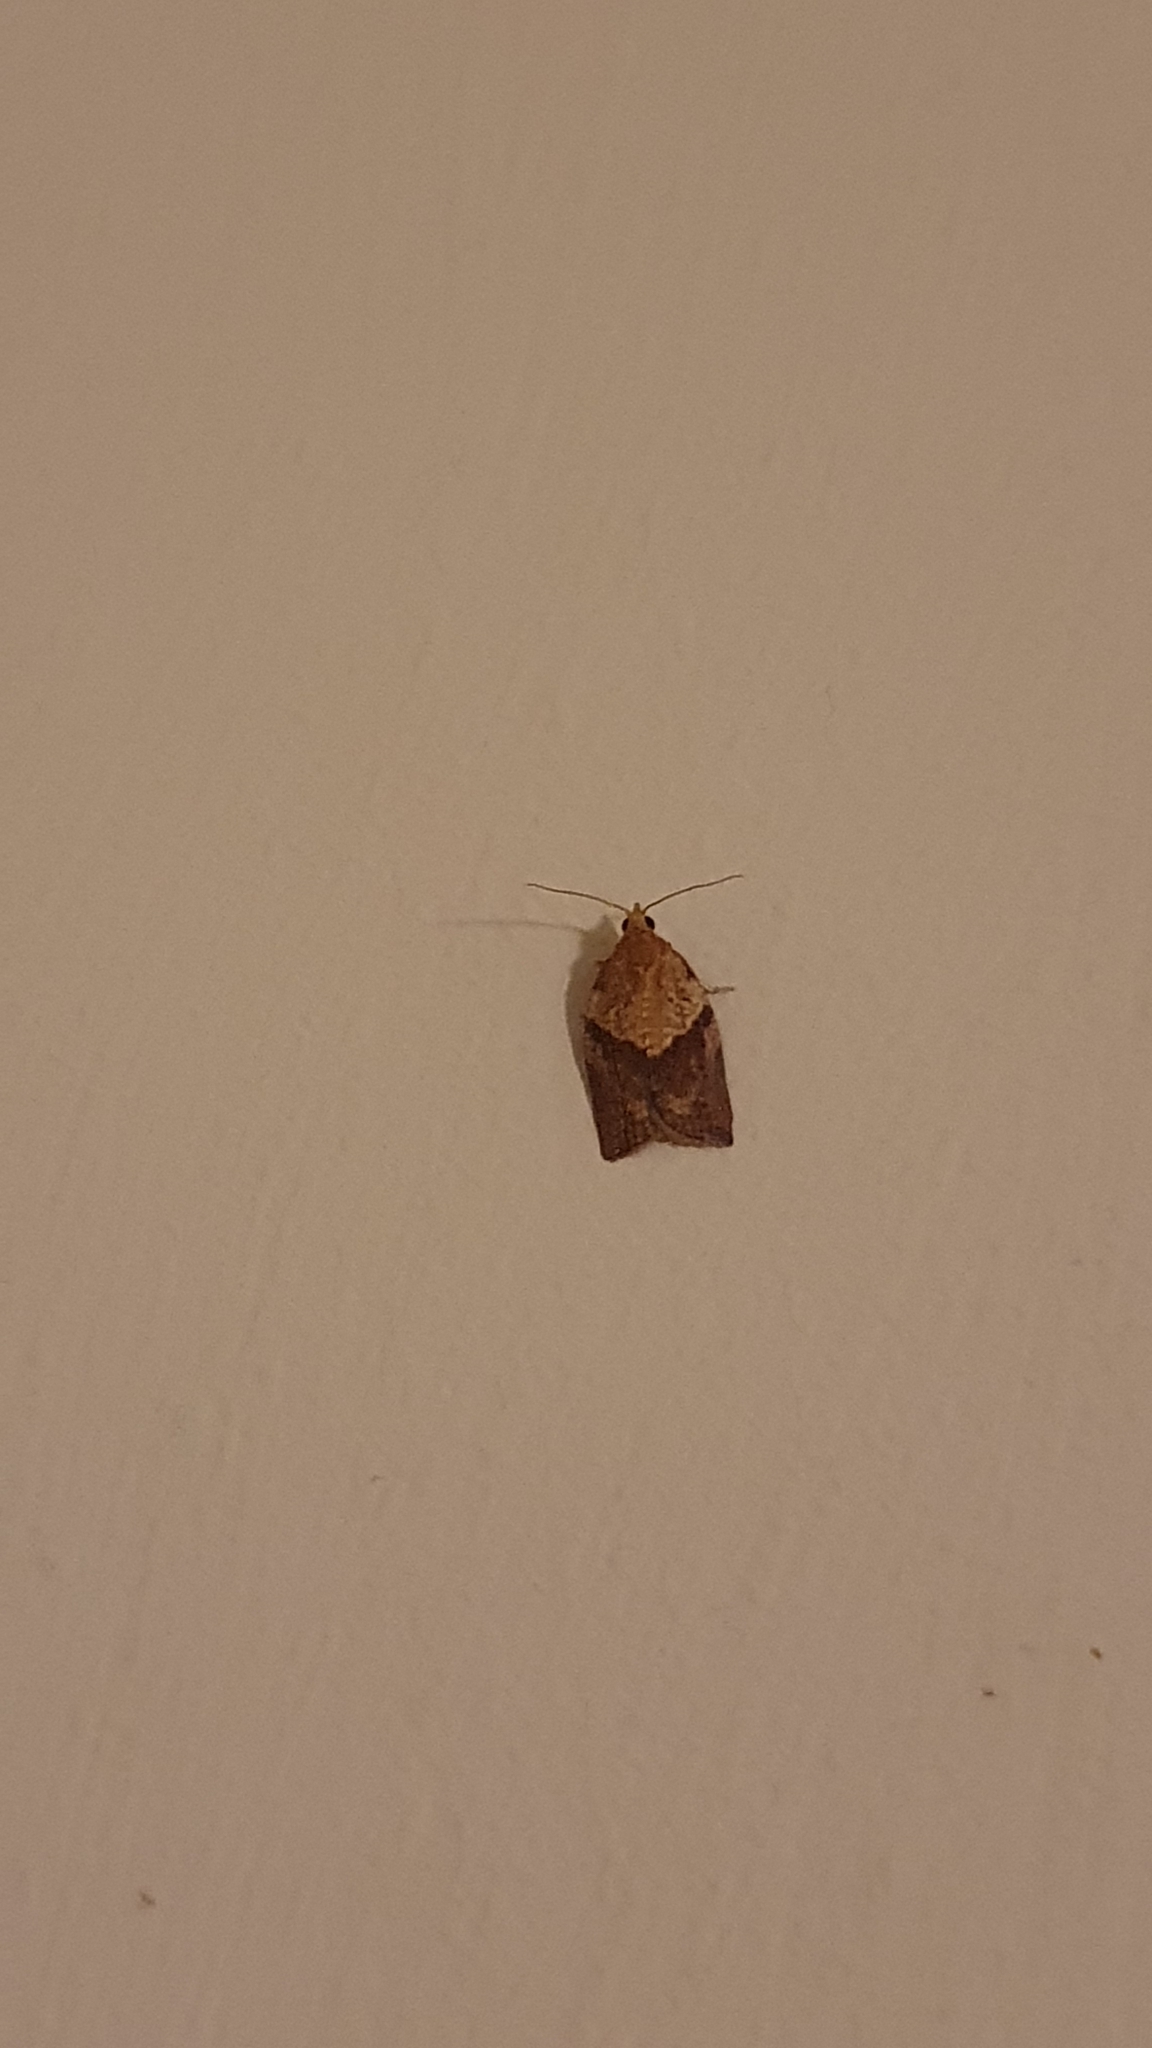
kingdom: Animalia
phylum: Arthropoda
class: Insecta
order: Lepidoptera
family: Tortricidae
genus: Epiphyas
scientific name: Epiphyas postvittana
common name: Light brown apple moth
